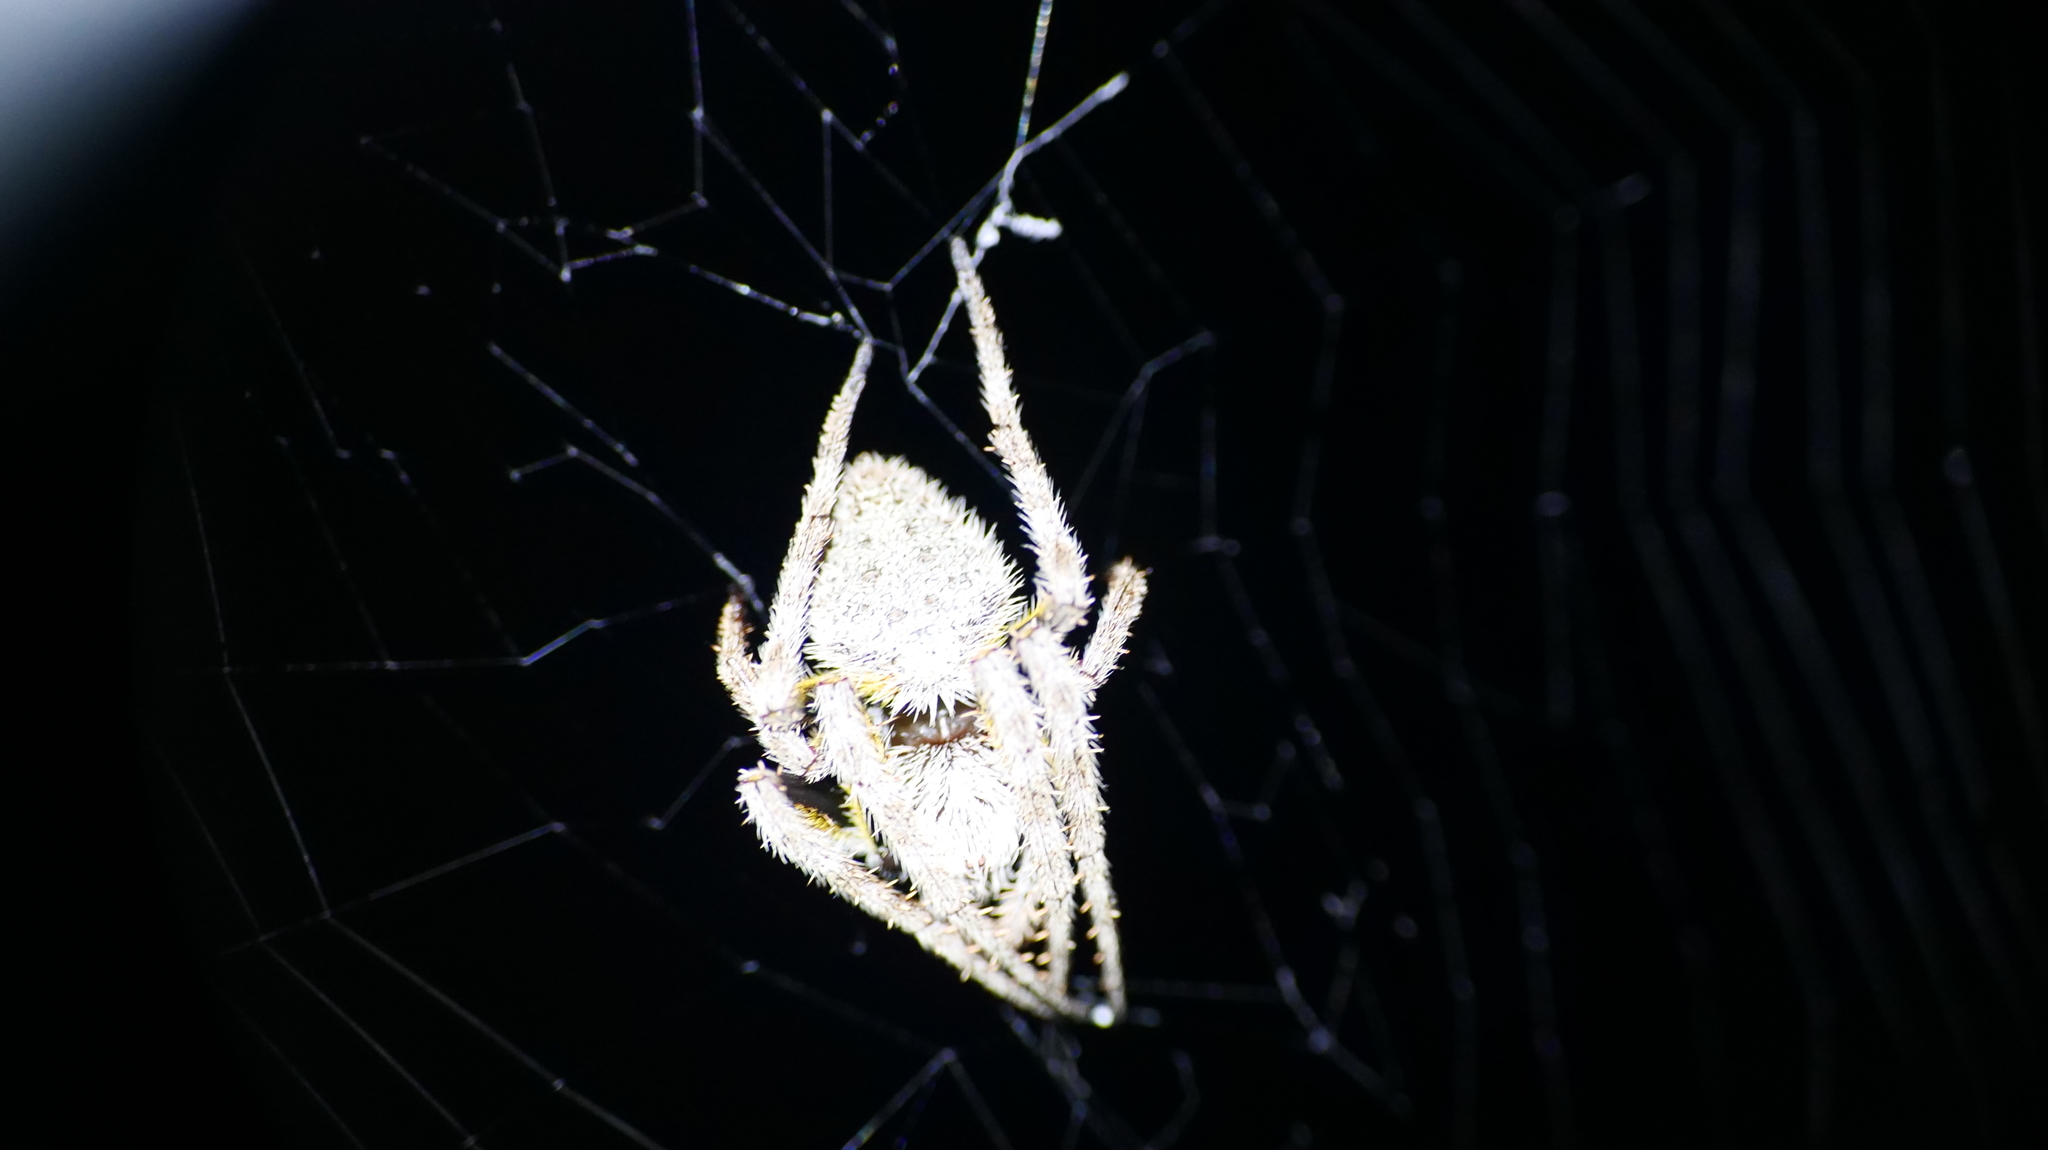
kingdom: Animalia
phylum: Arthropoda
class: Arachnida
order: Araneae
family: Araneidae
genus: Eriophora
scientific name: Eriophora ravilla
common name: Orb weavers
